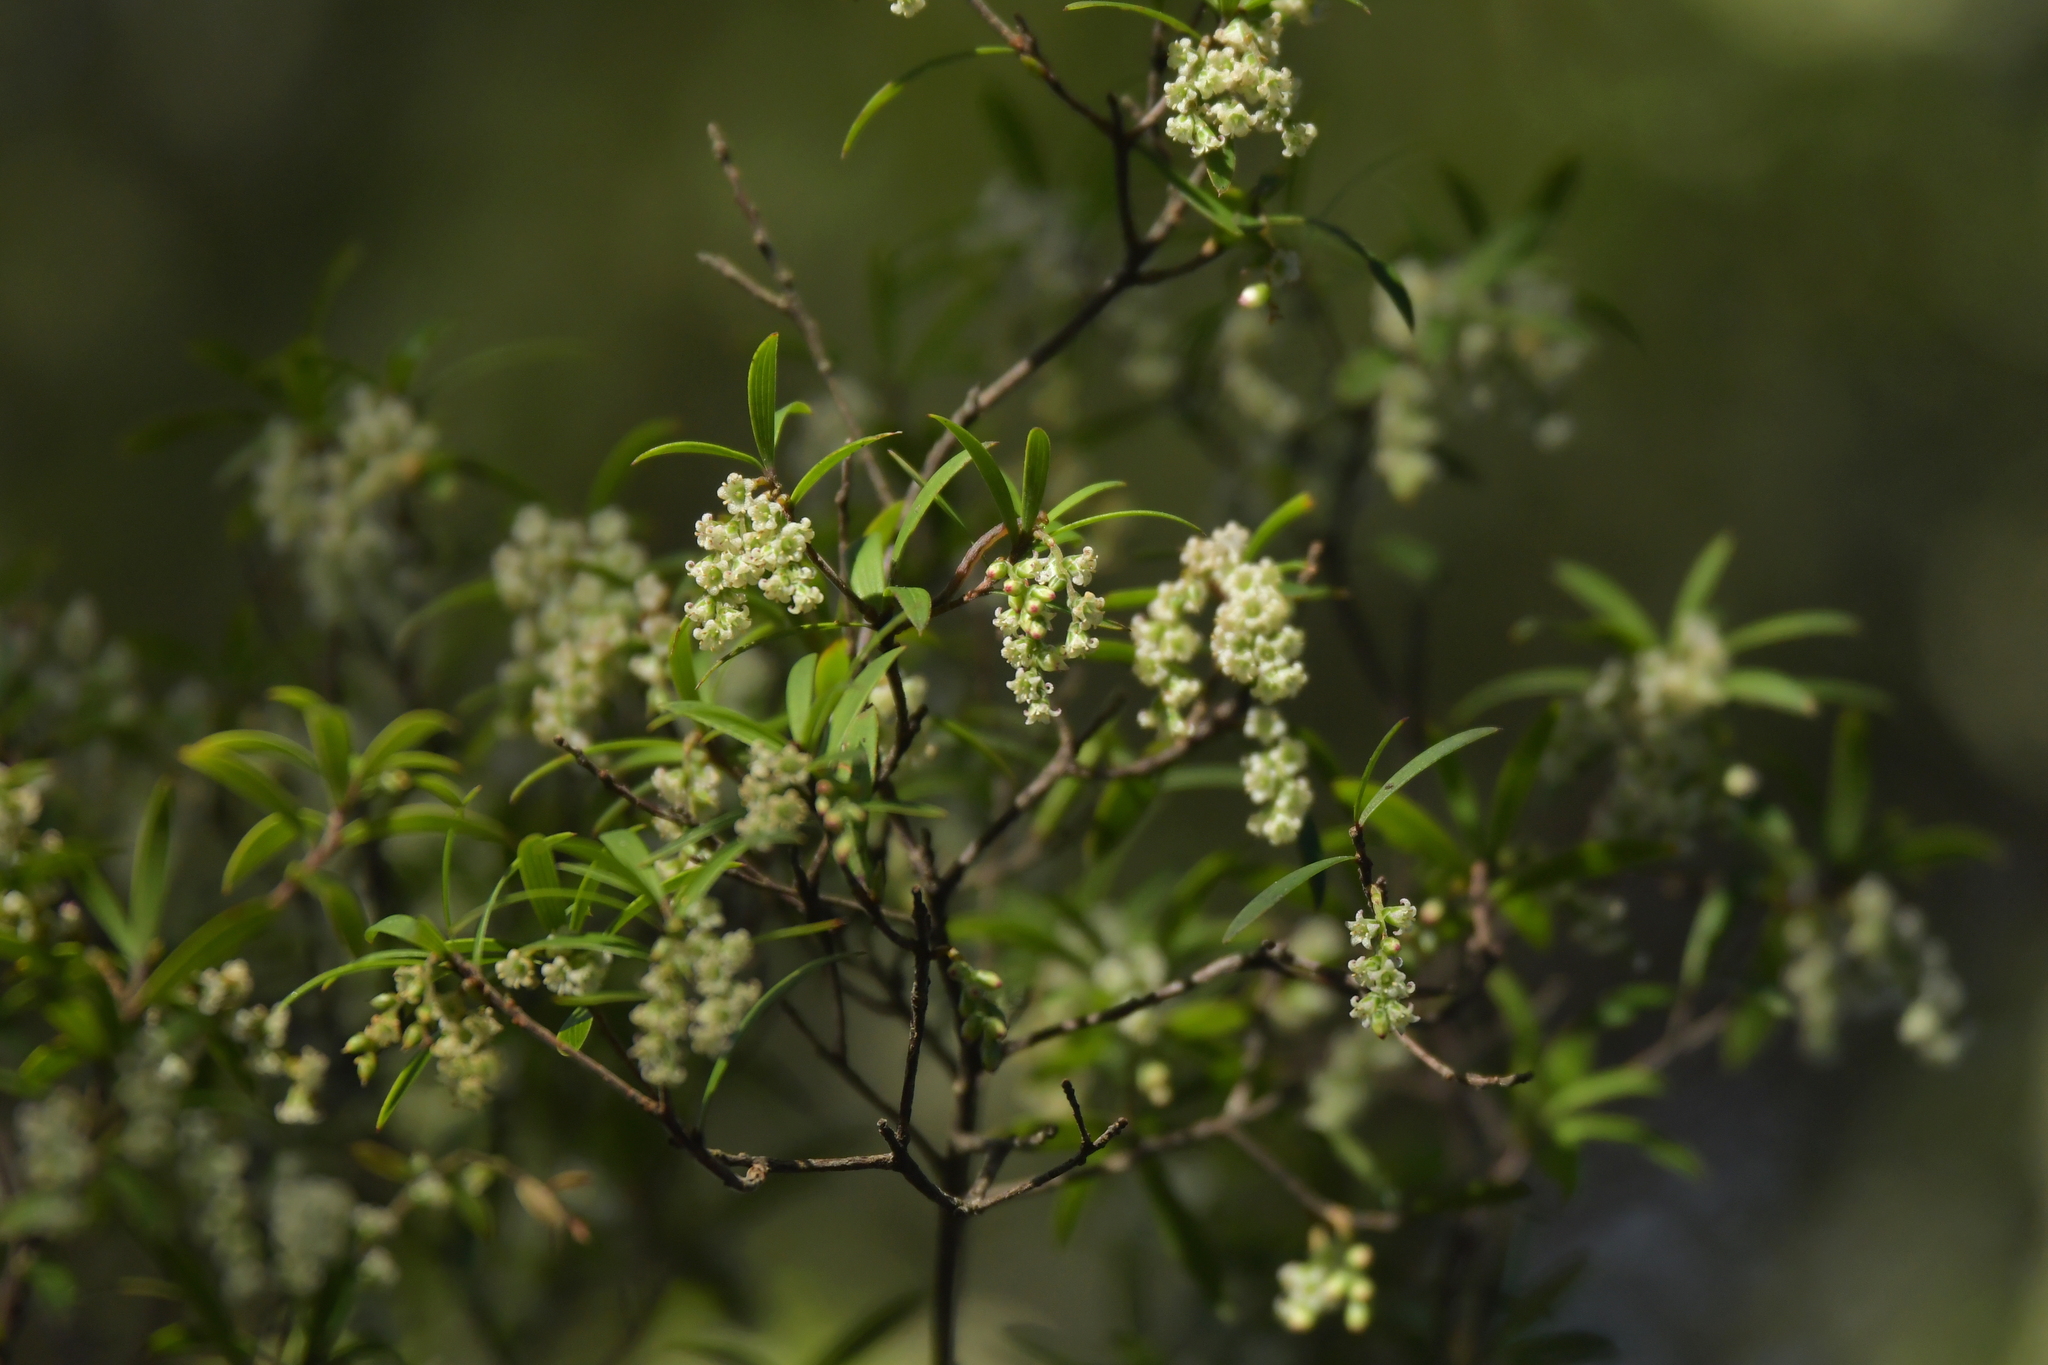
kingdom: Plantae
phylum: Tracheophyta
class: Magnoliopsida
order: Ericales
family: Ericaceae
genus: Leucopogon
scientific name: Leucopogon fasciculatus
